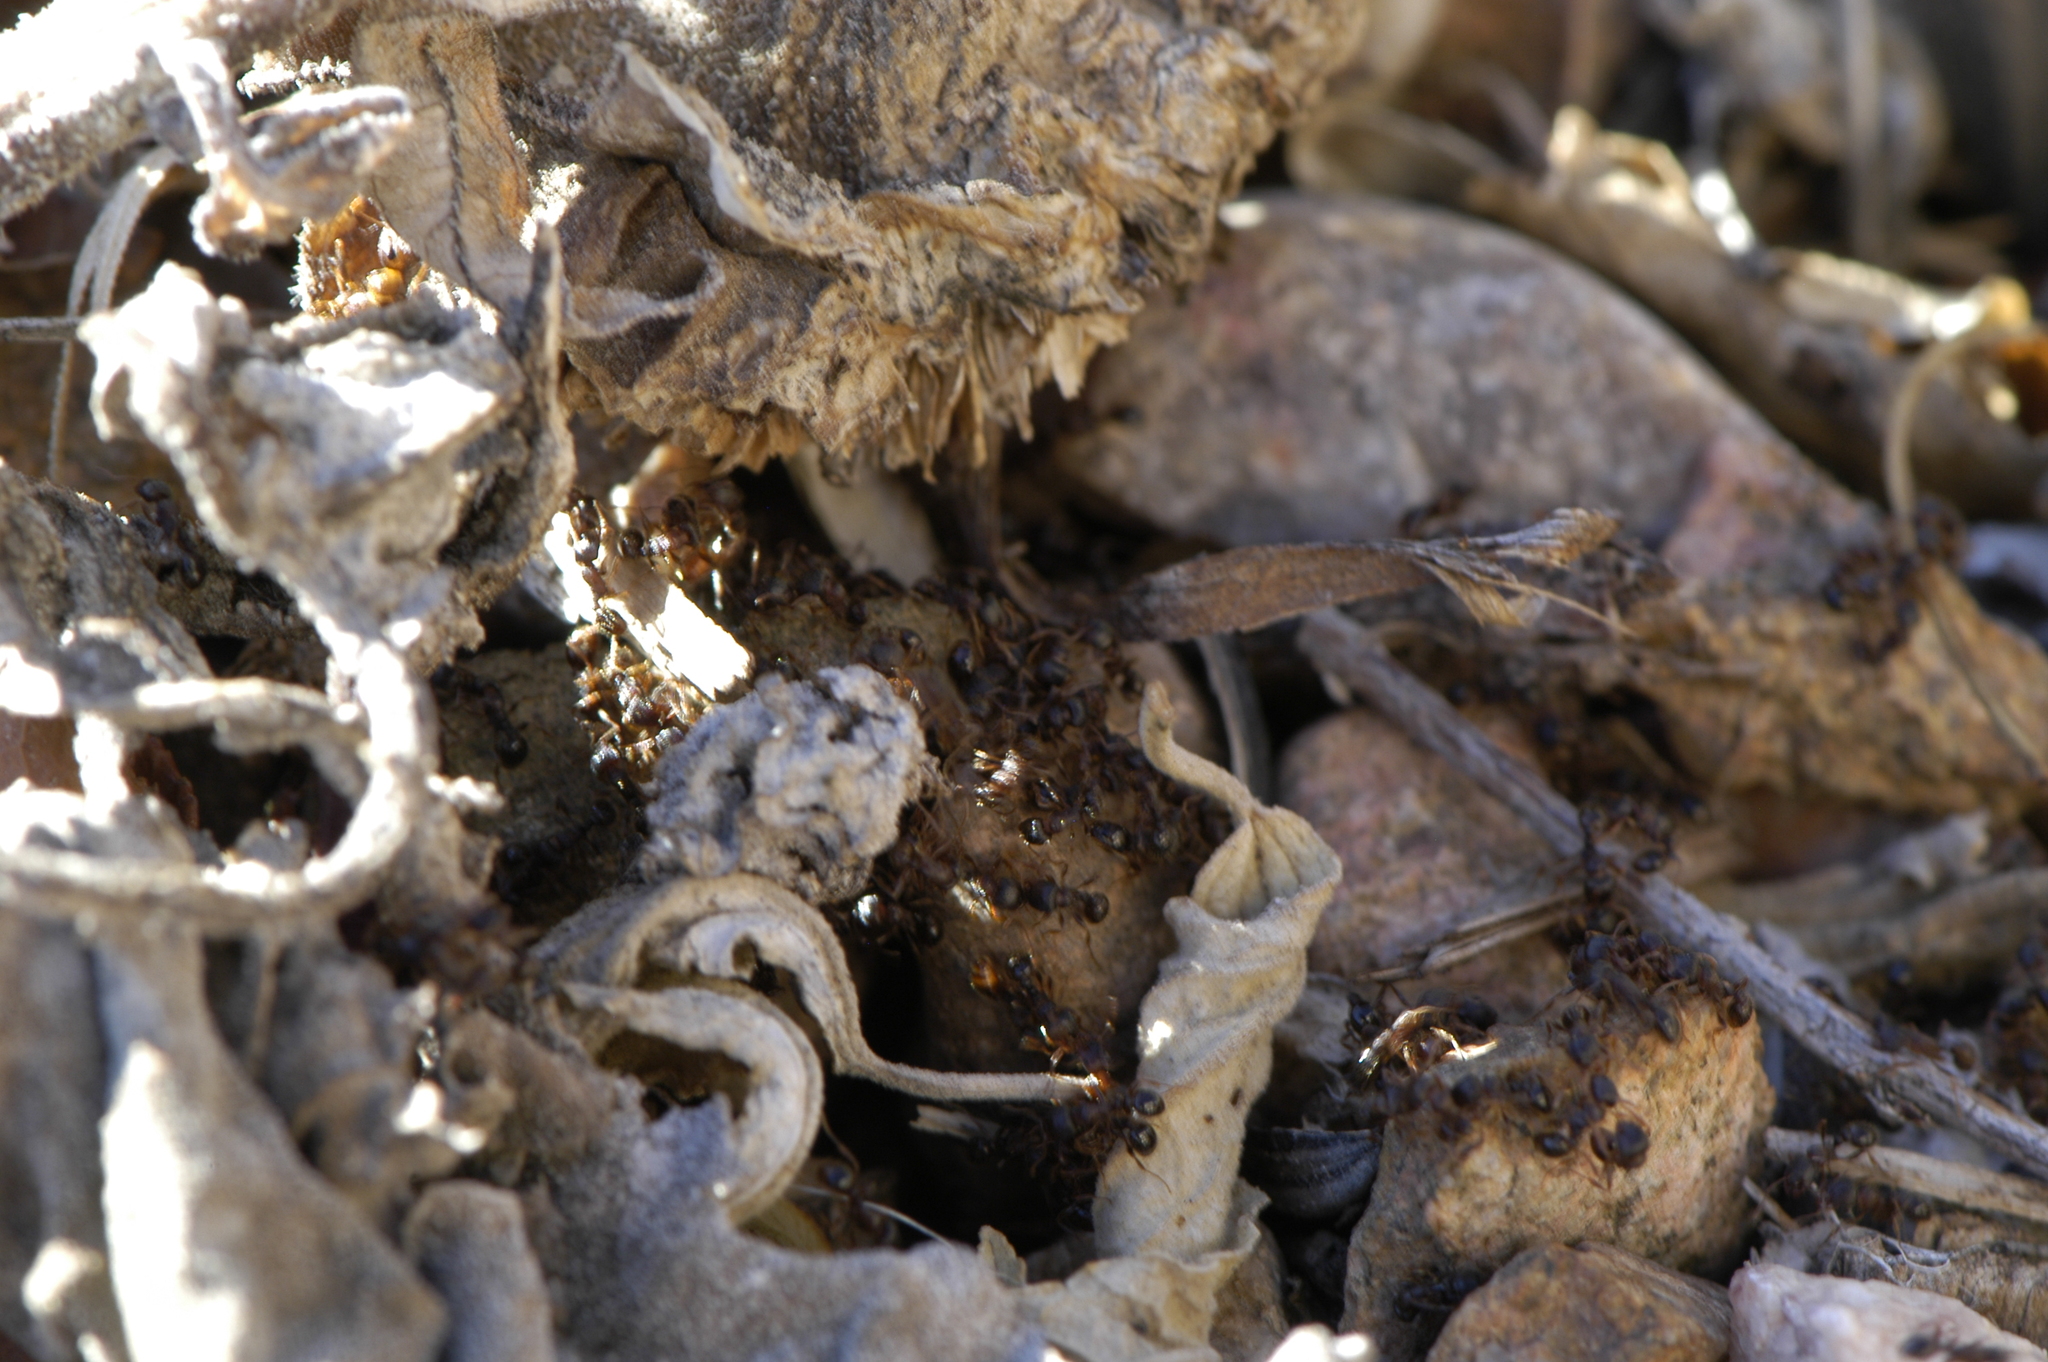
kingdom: Animalia
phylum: Arthropoda
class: Insecta
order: Hymenoptera
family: Formicidae
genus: Tetramorium
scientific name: Tetramorium immigrans
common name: Pavement ant
